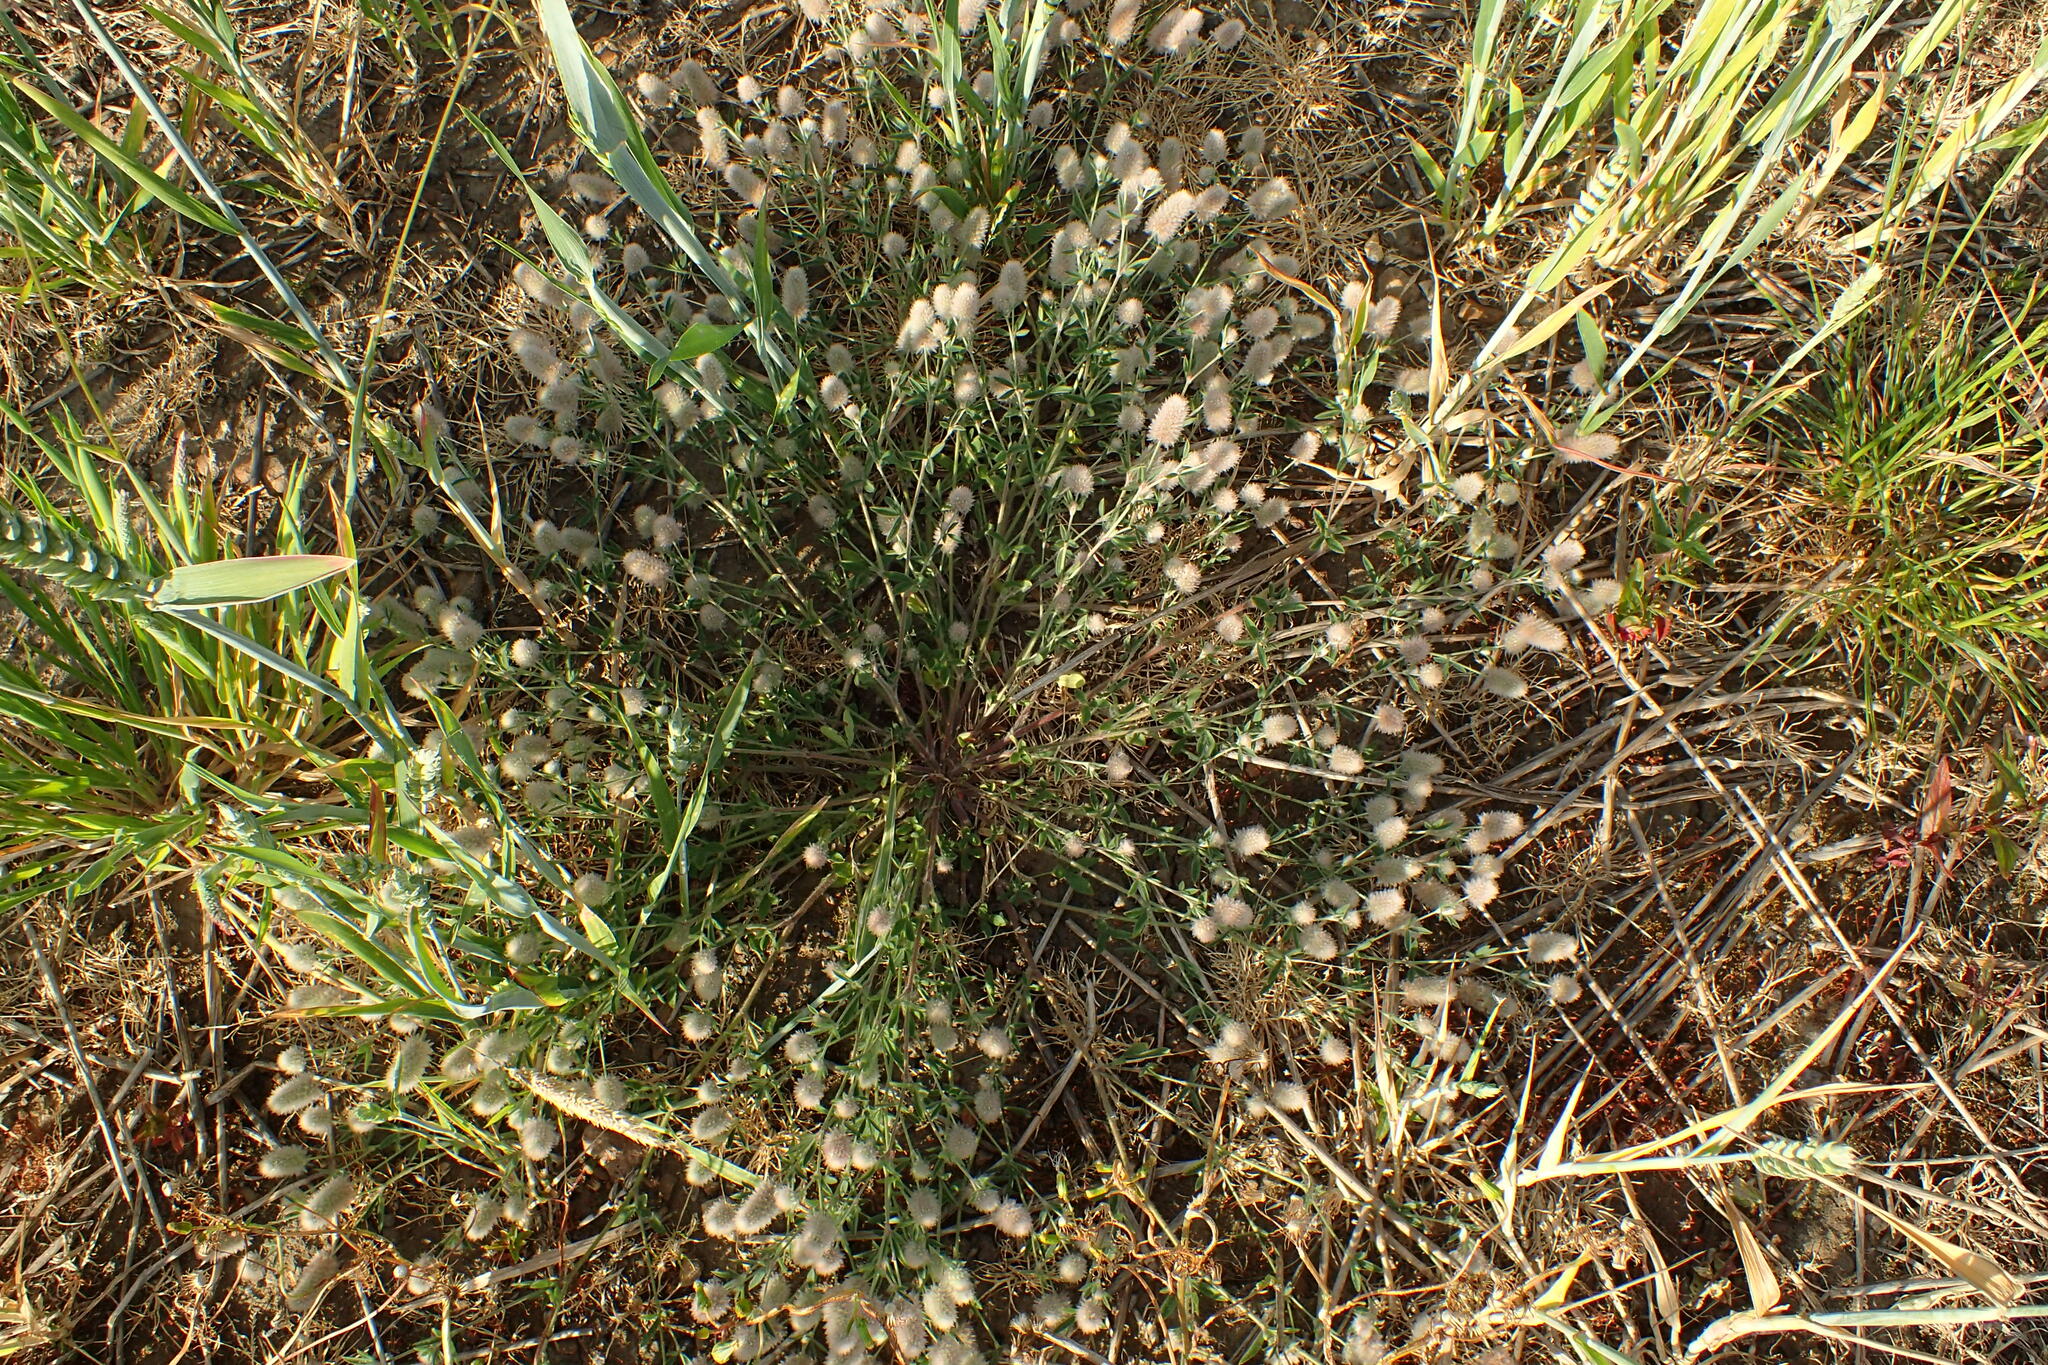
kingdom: Plantae
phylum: Tracheophyta
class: Magnoliopsida
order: Fabales
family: Fabaceae
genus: Trifolium
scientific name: Trifolium arvense
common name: Hare's-foot clover
